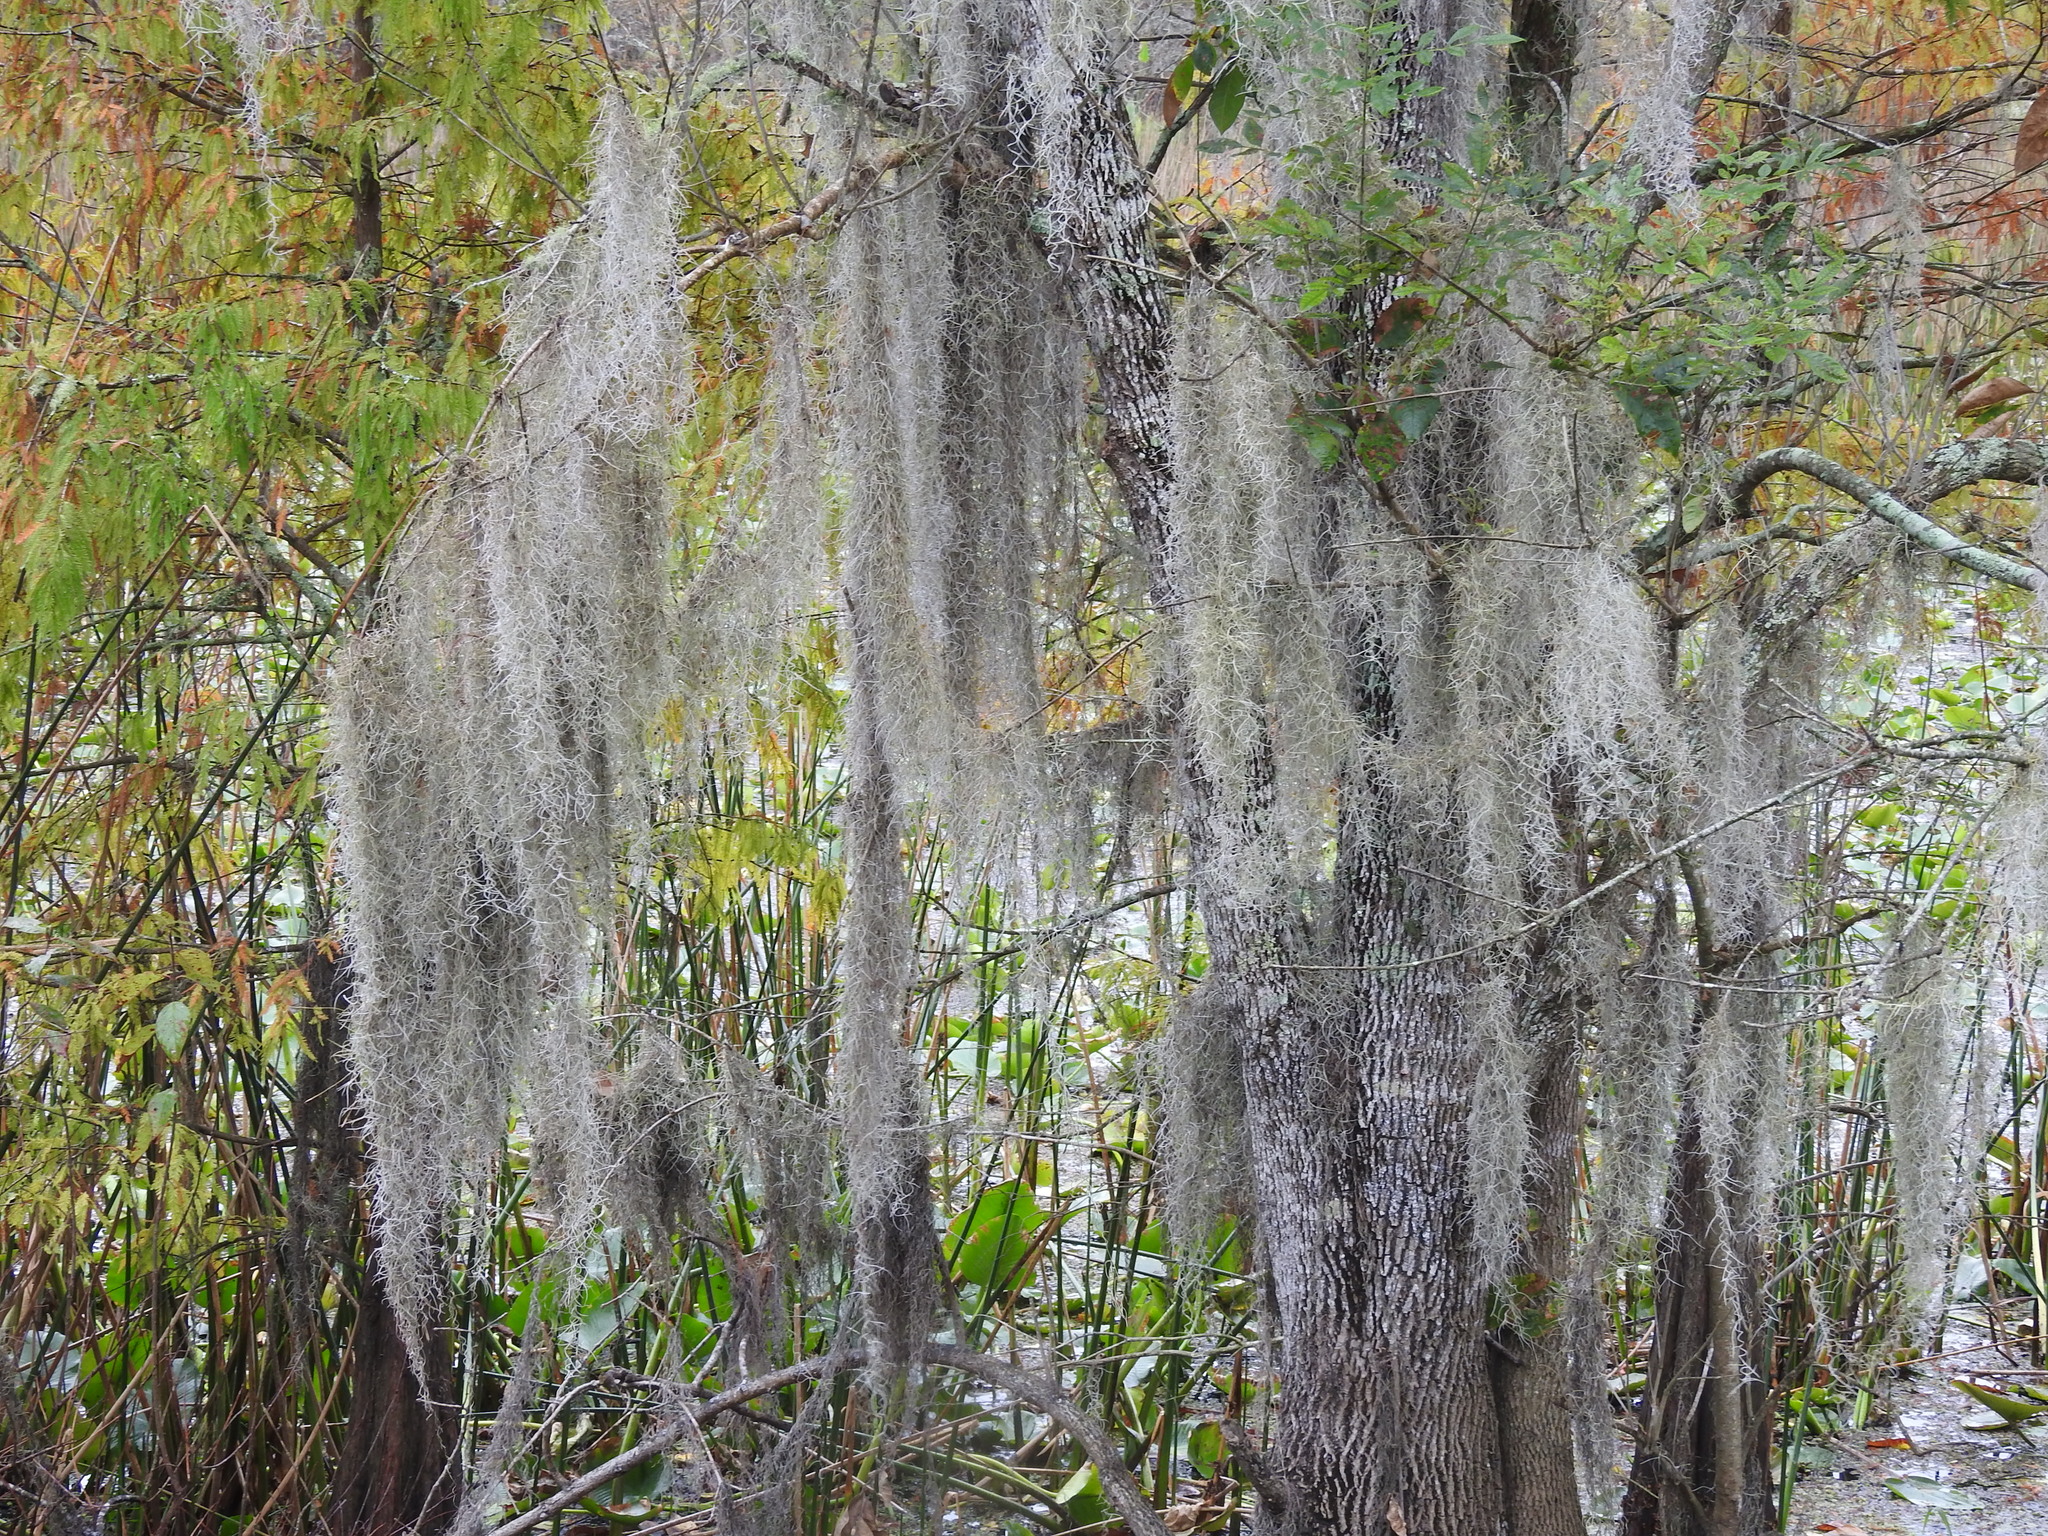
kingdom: Plantae
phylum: Tracheophyta
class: Liliopsida
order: Poales
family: Bromeliaceae
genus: Tillandsia
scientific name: Tillandsia usneoides
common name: Spanish moss
